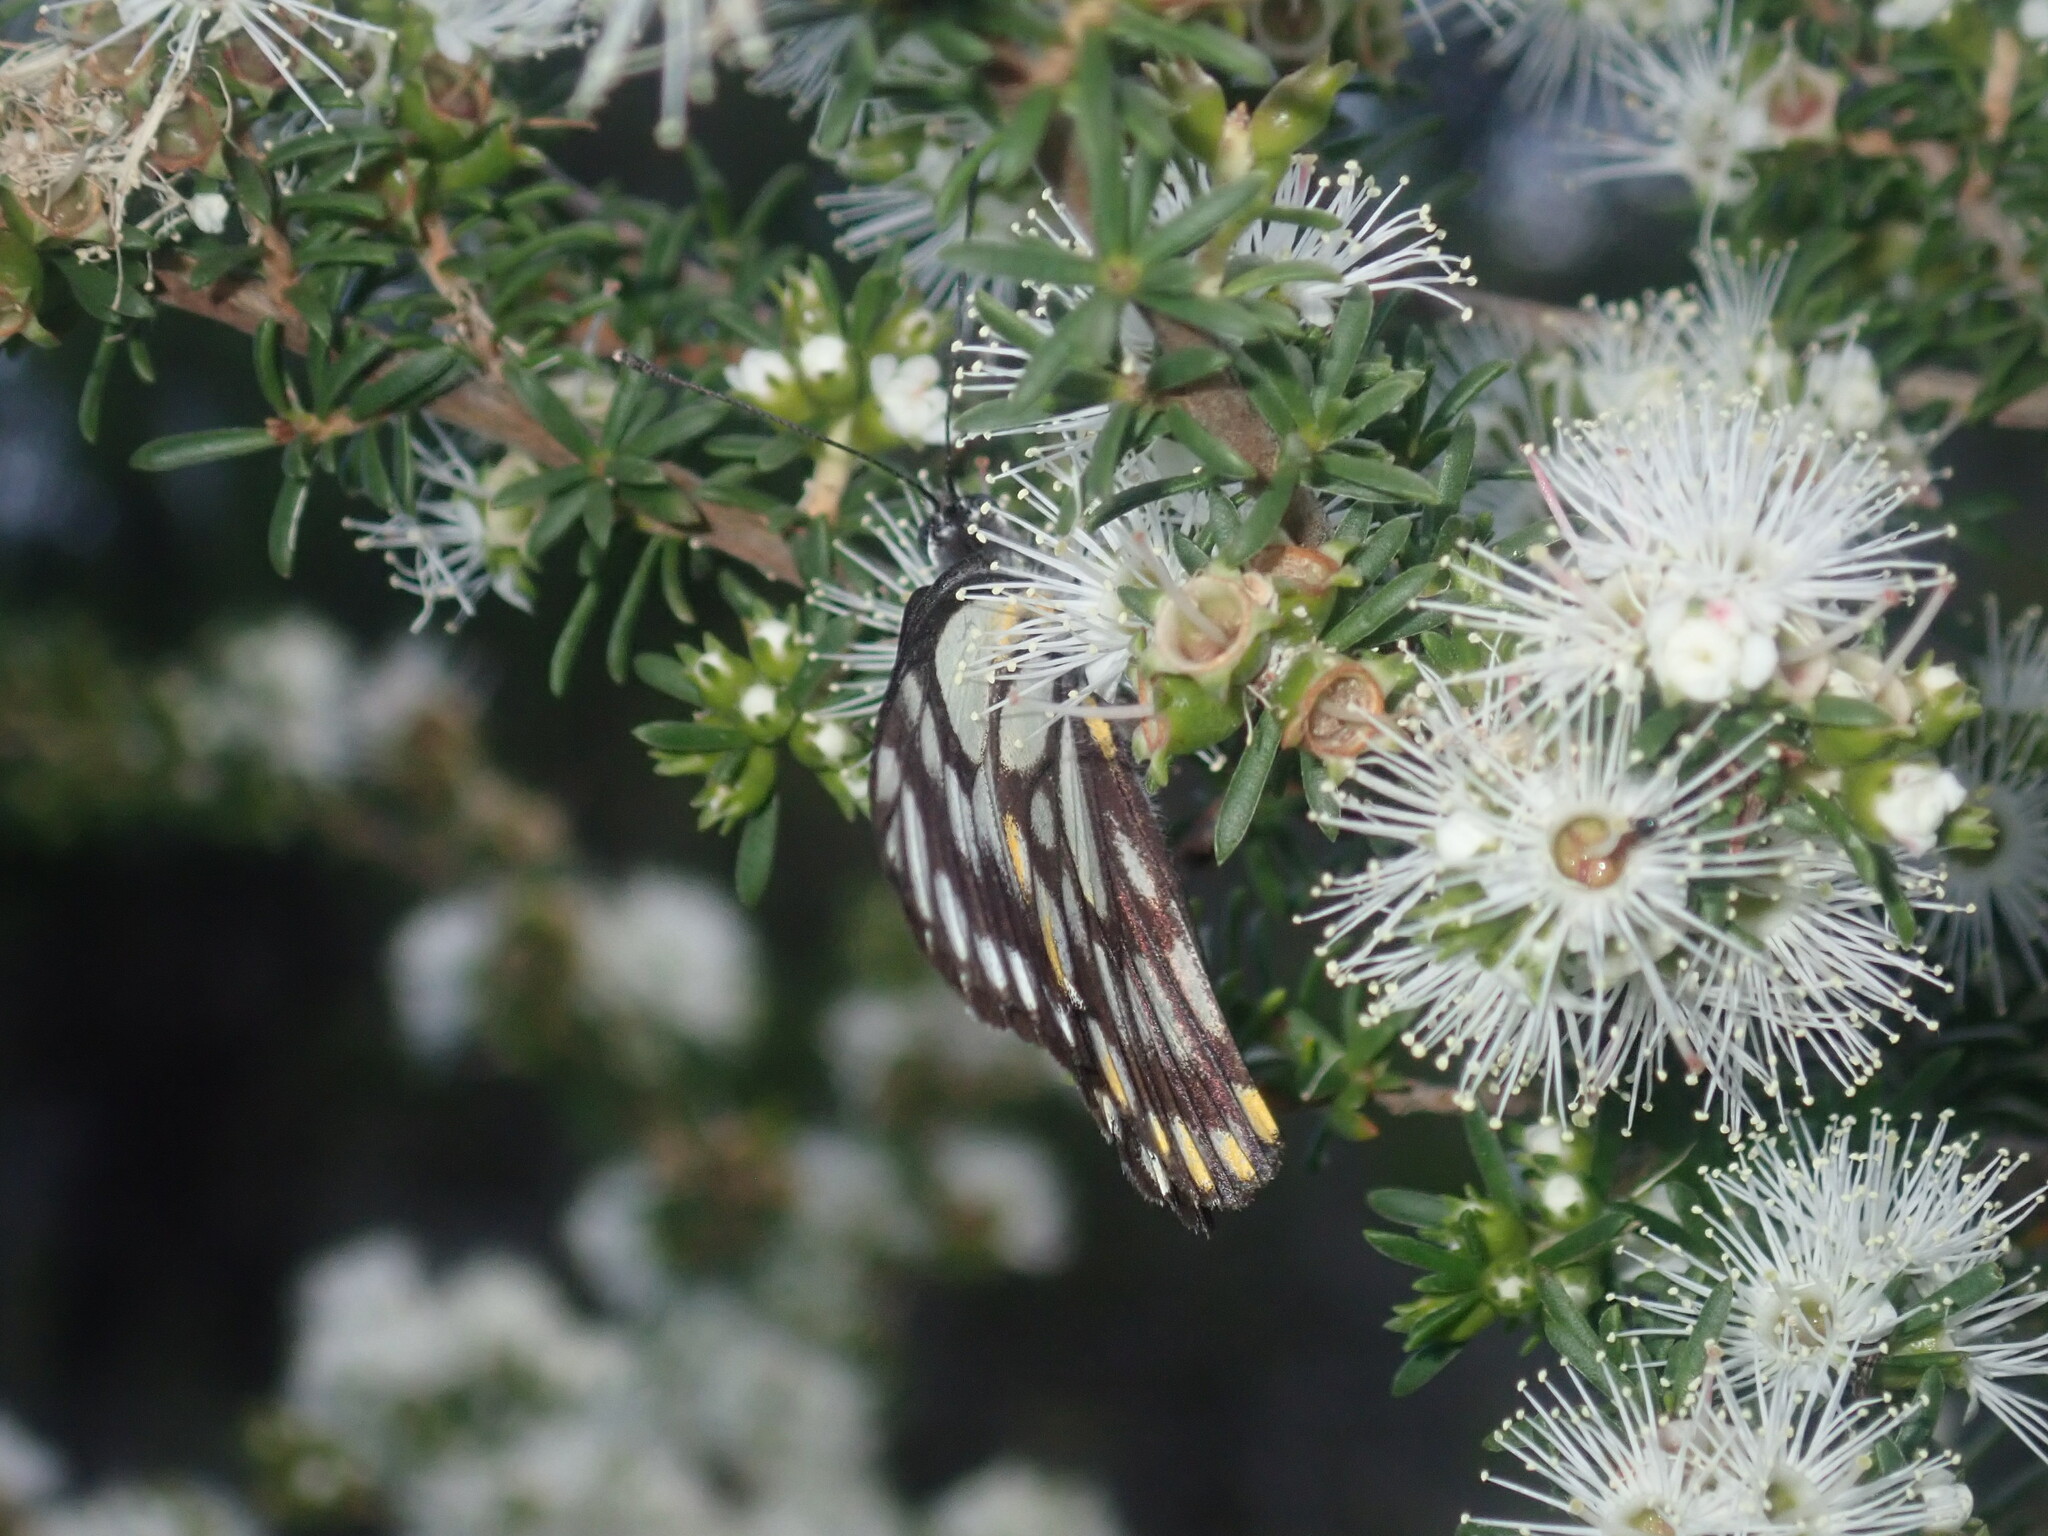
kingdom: Animalia
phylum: Arthropoda
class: Insecta
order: Lepidoptera
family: Pieridae
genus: Belenois
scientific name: Belenois java
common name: Caper white
